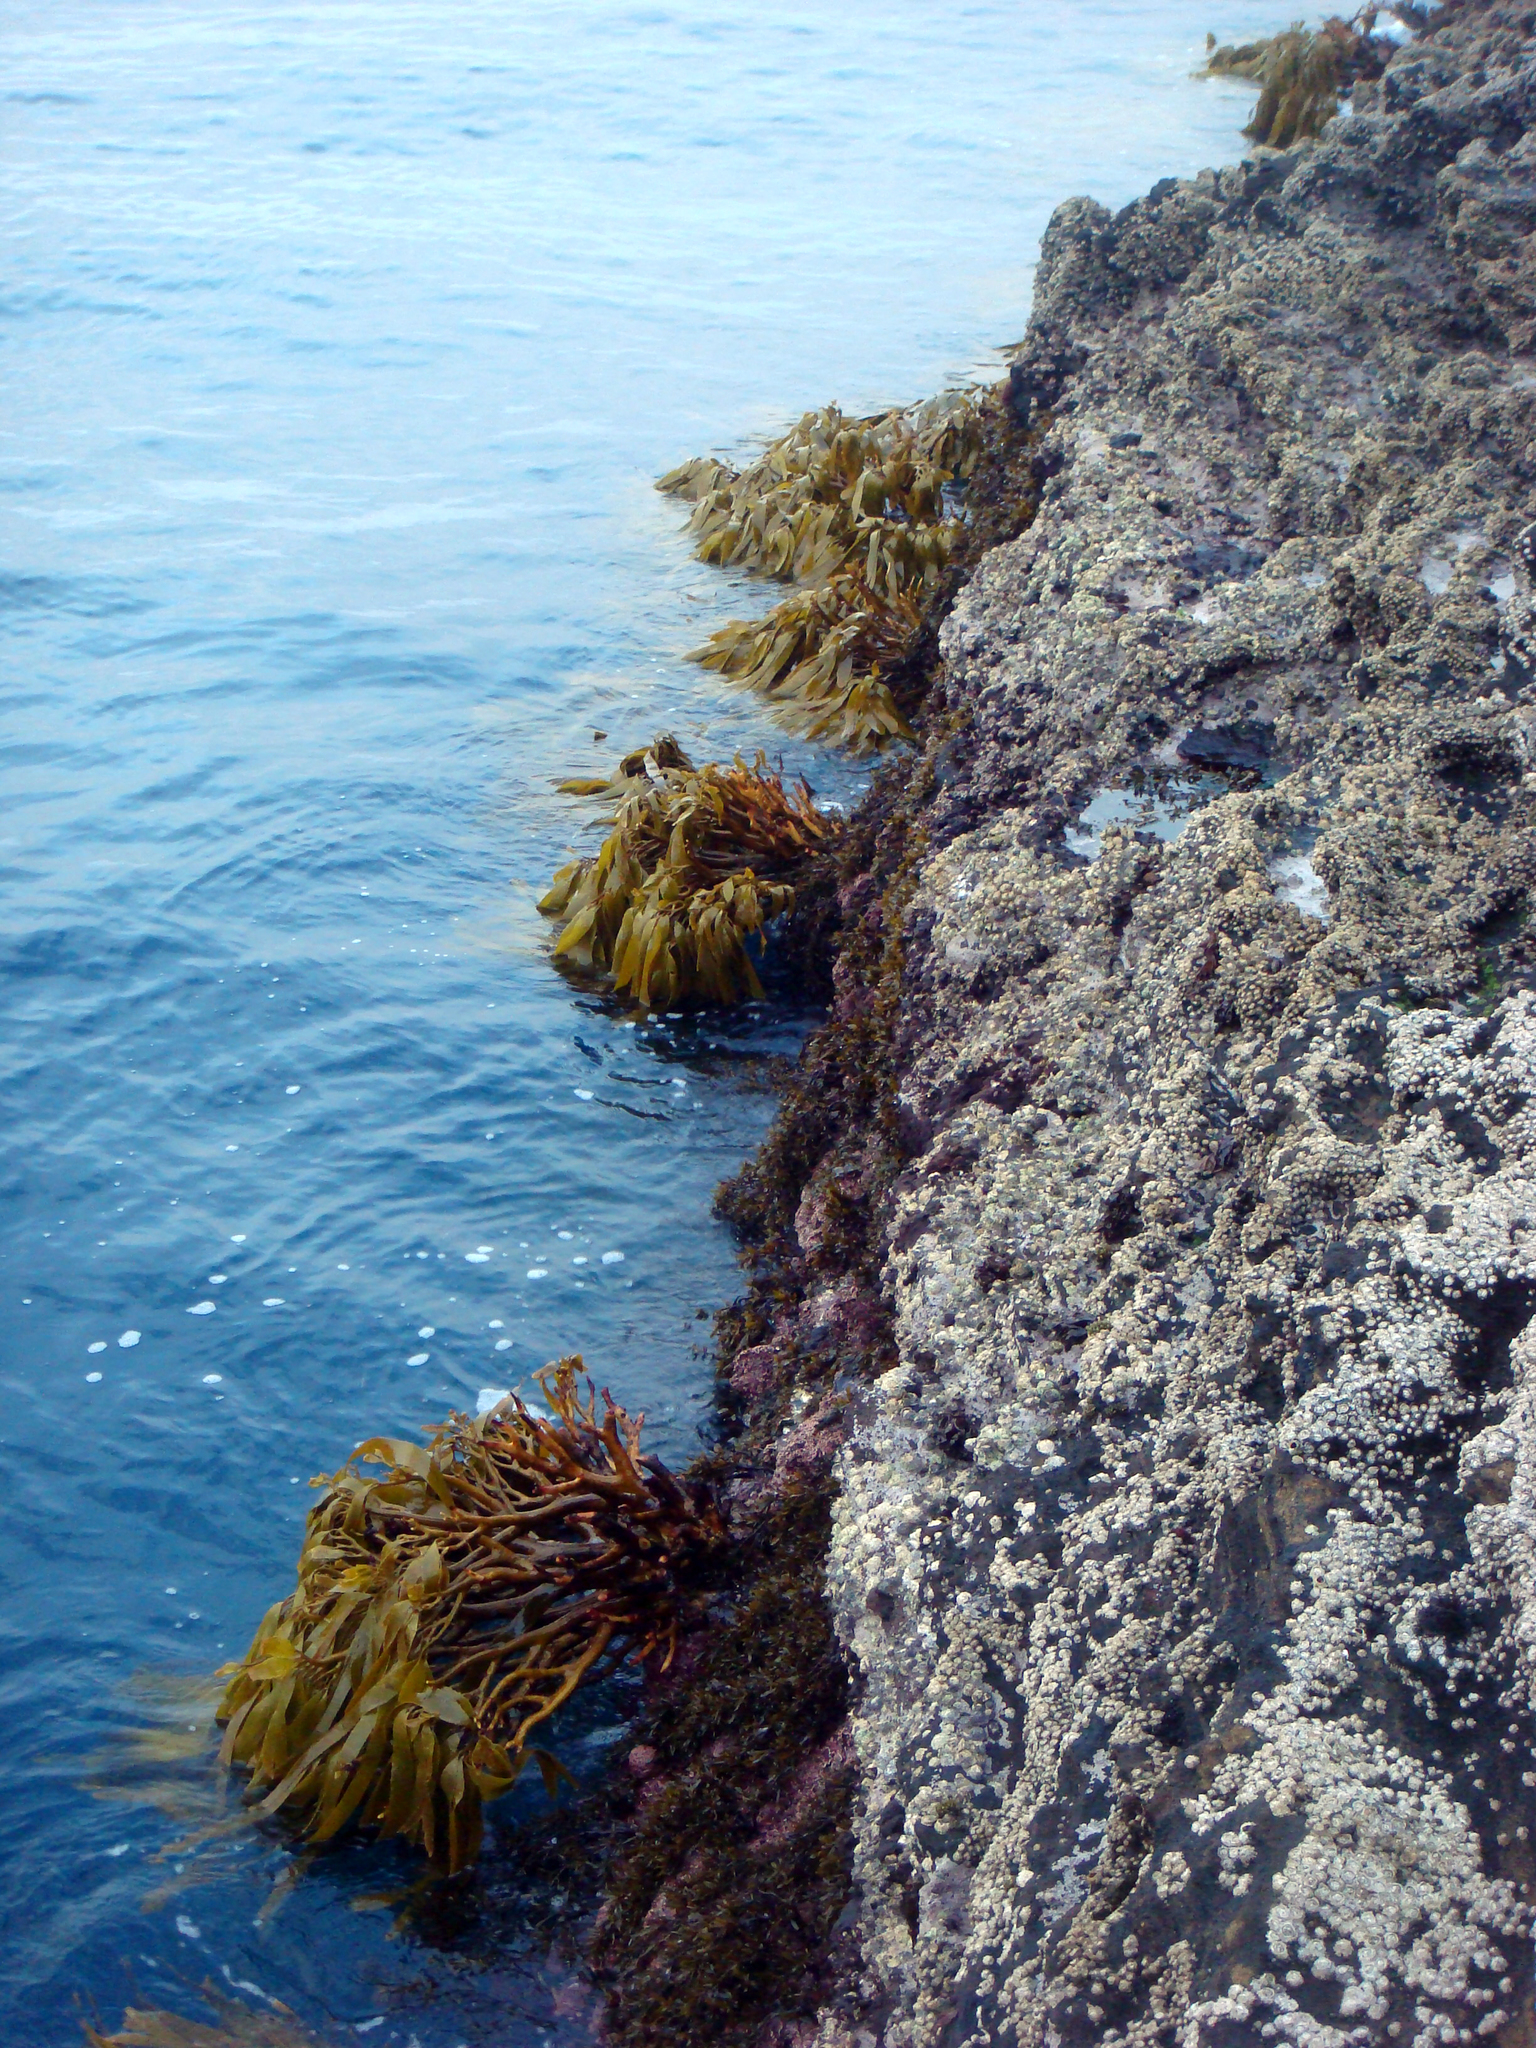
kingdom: Chromista
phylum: Ochrophyta
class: Phaeophyceae
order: Laminariales
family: Lessoniaceae
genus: Lessonia
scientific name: Lessonia tholiformis
